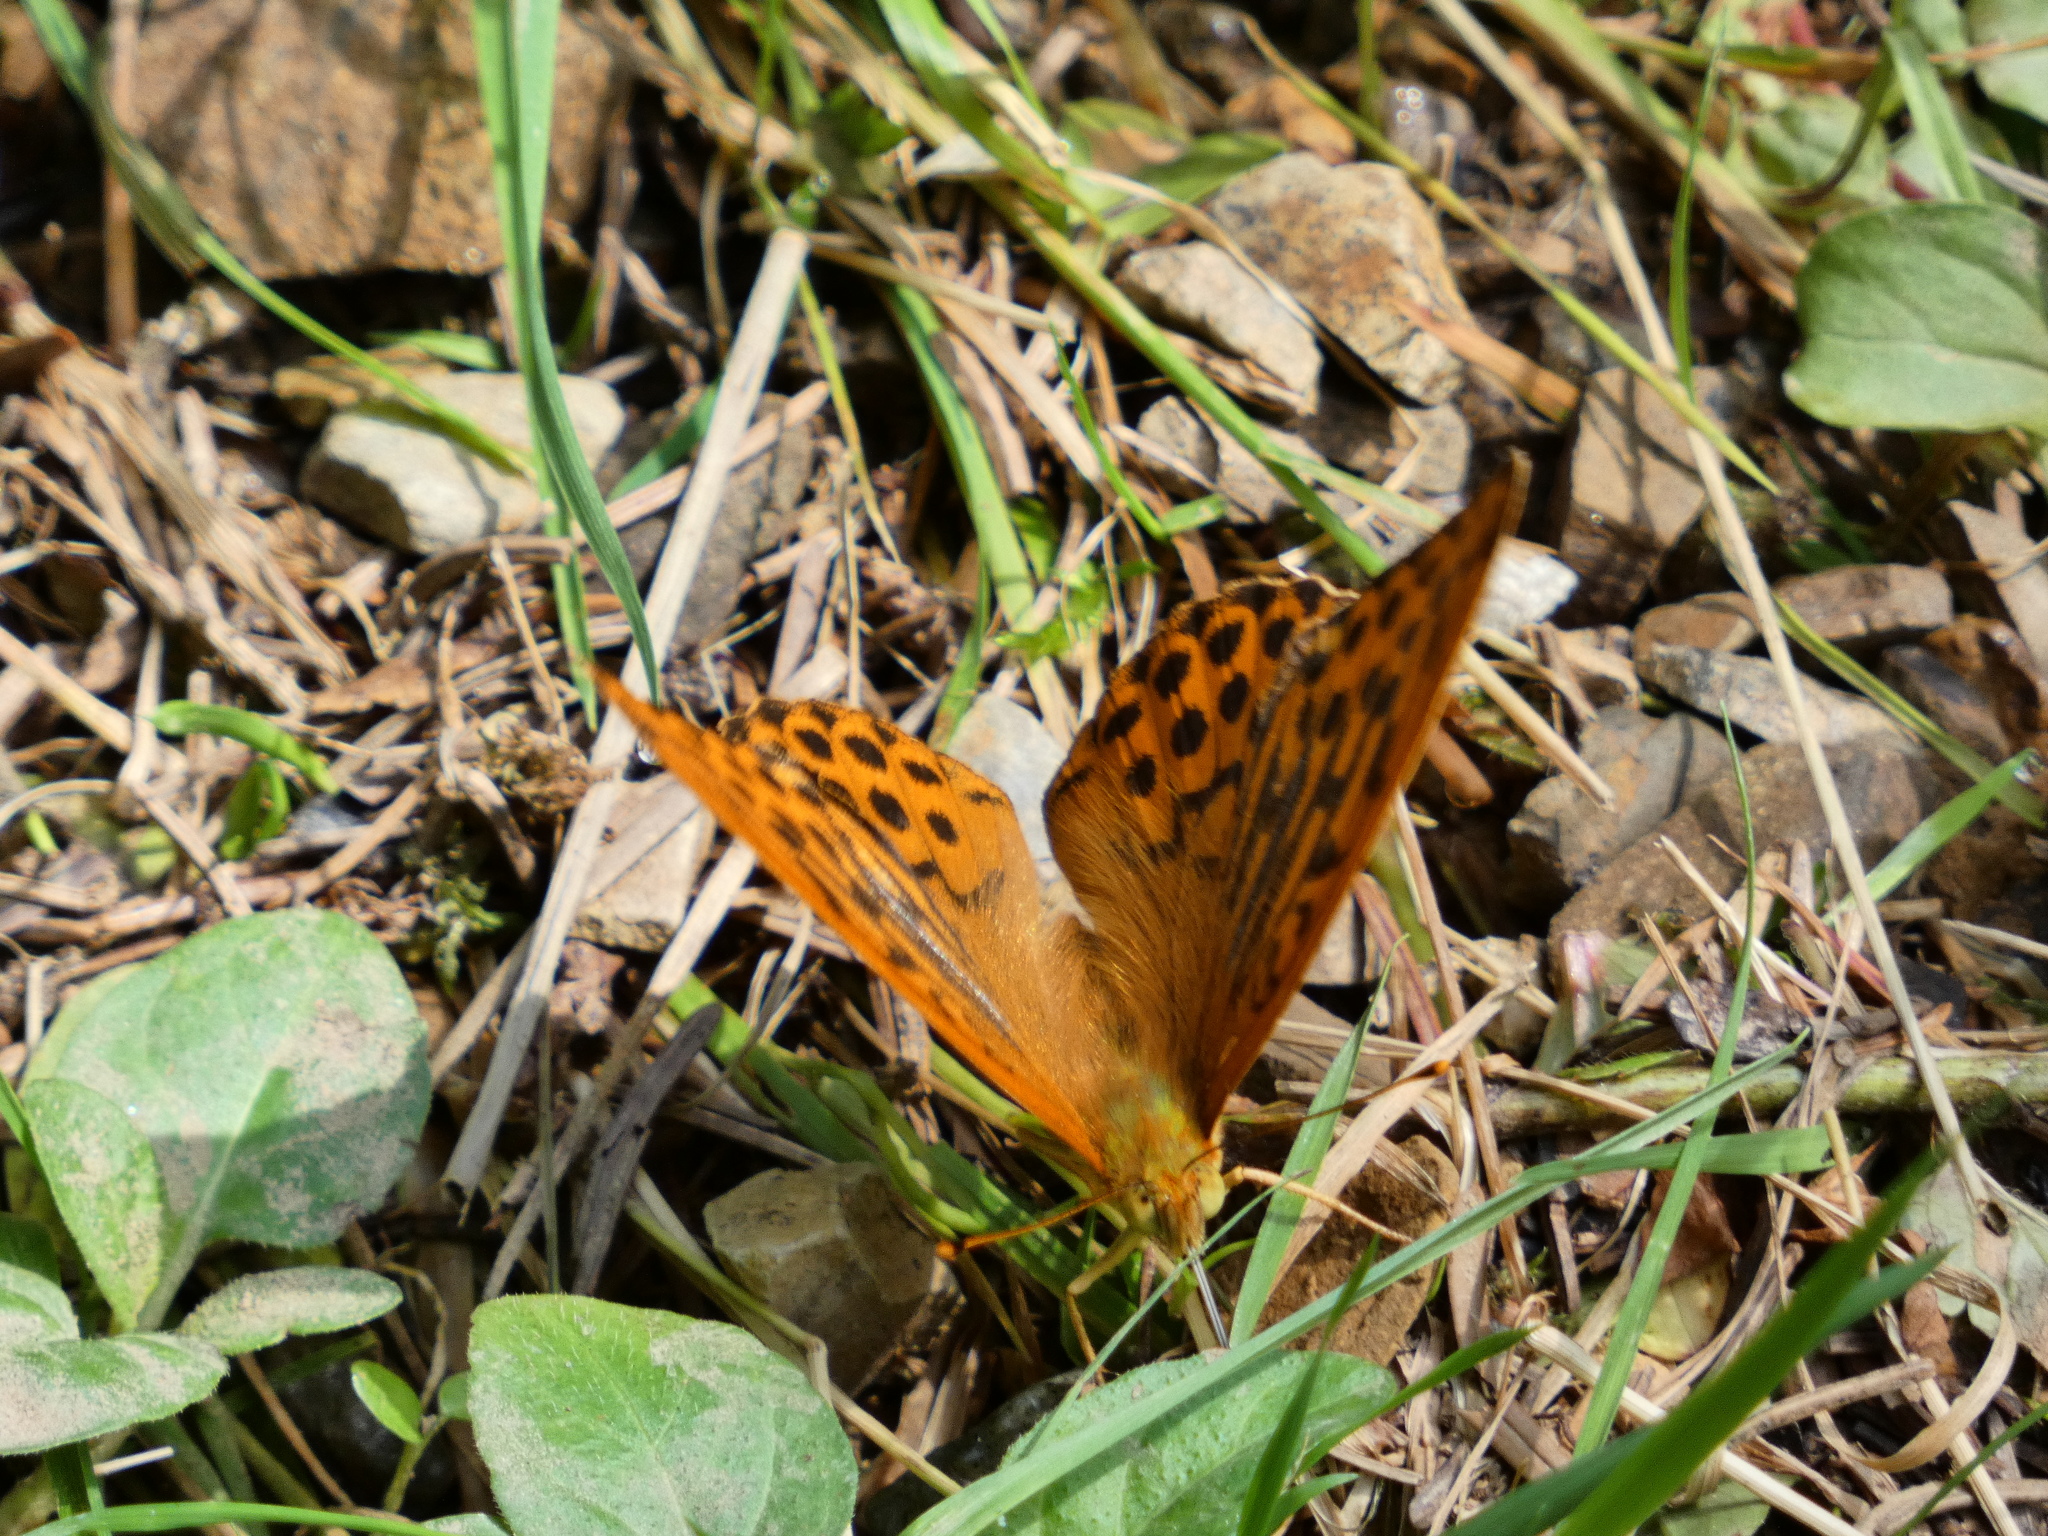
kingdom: Animalia
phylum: Arthropoda
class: Insecta
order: Lepidoptera
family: Nymphalidae
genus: Argynnis
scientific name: Argynnis paphia
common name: Silver-washed fritillary
